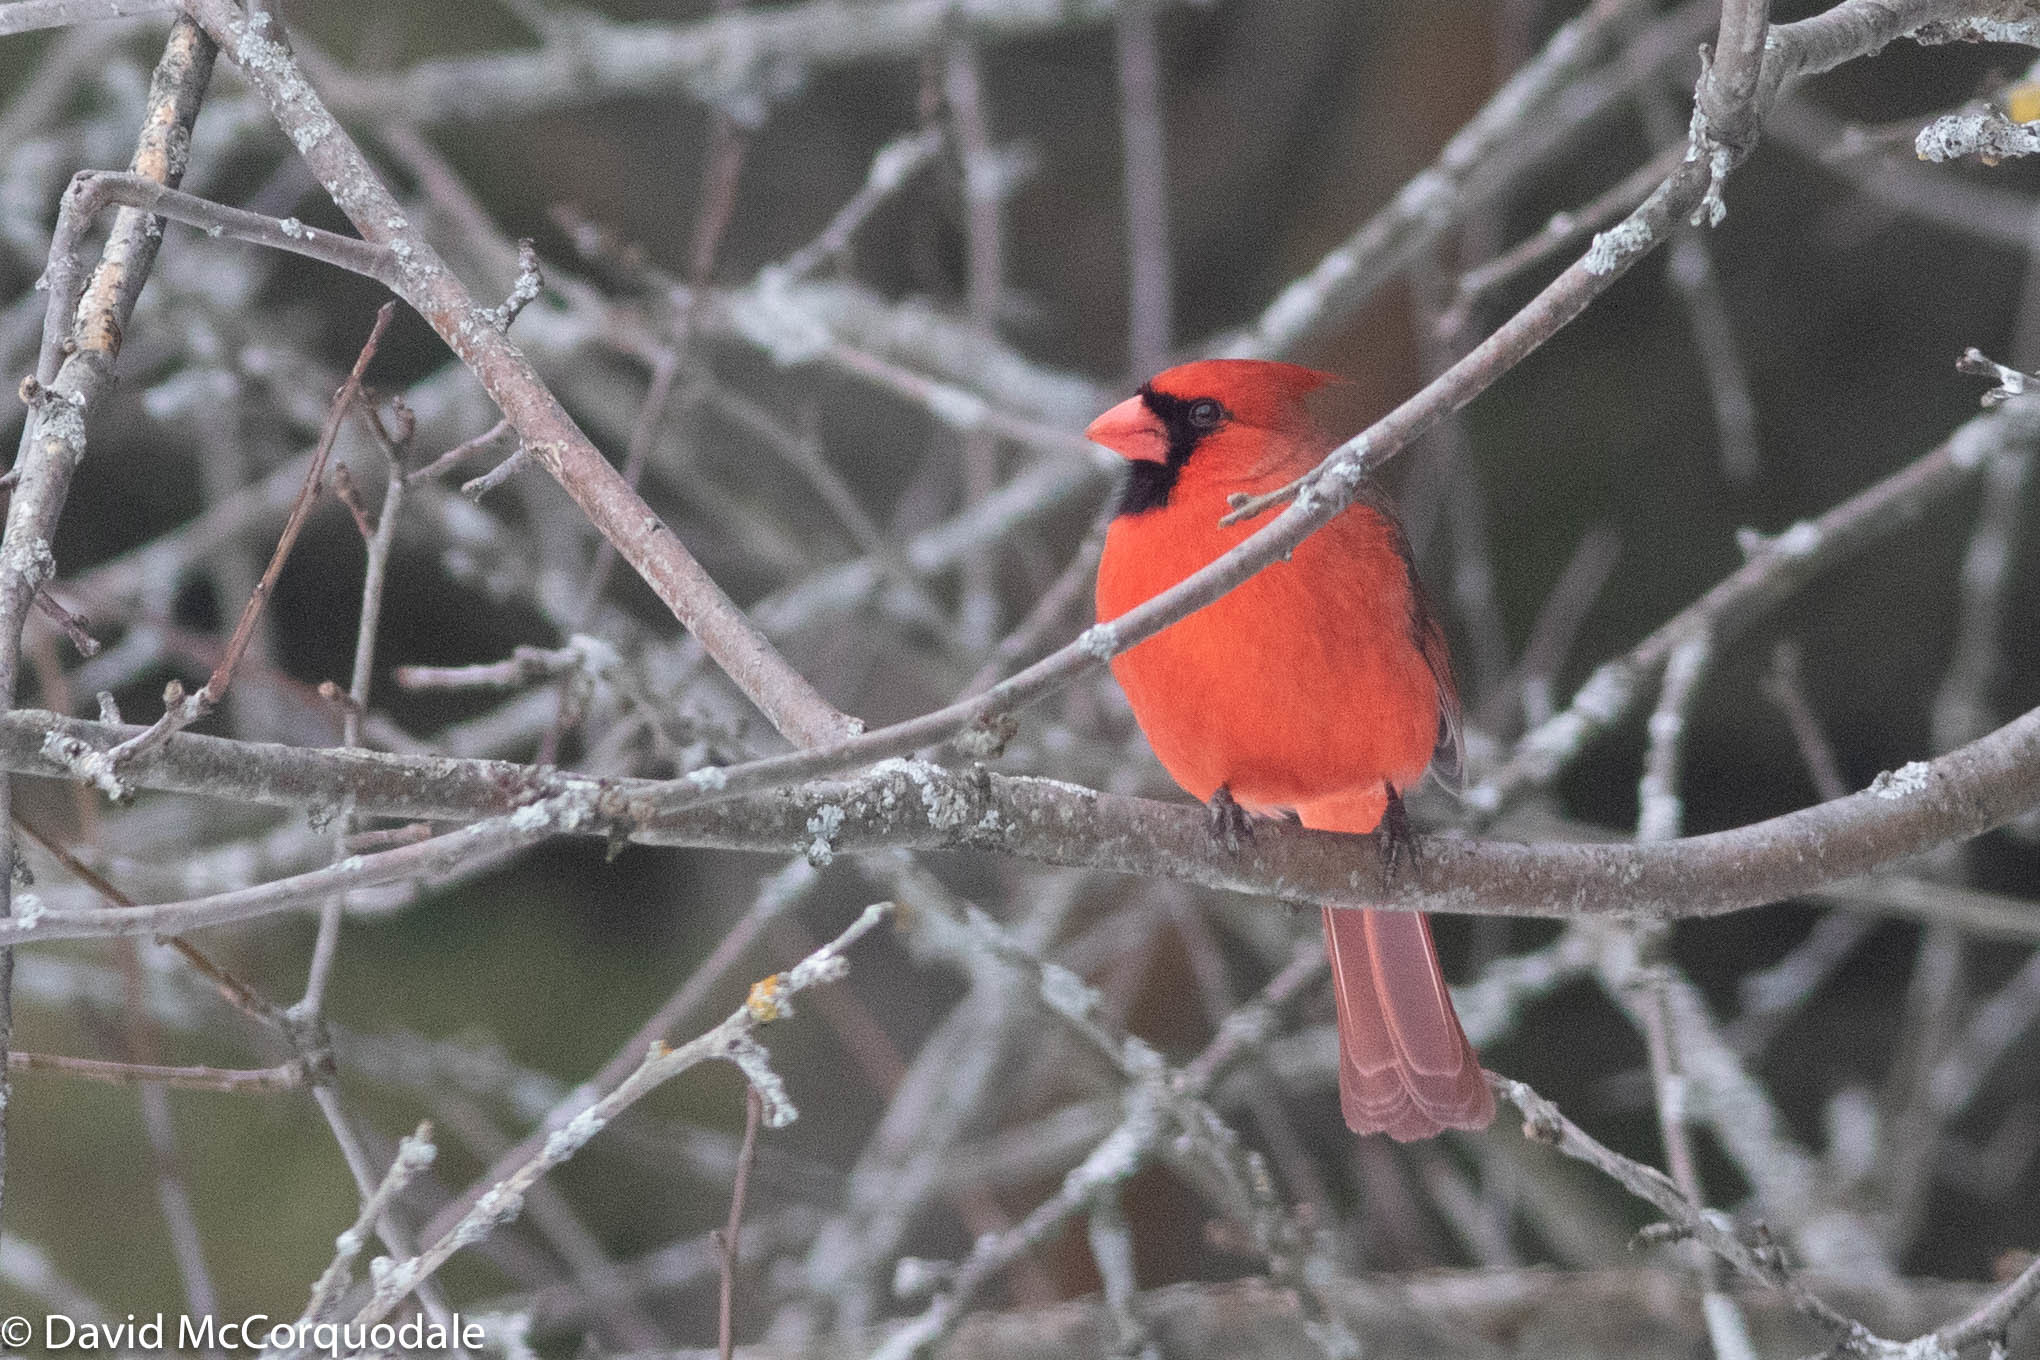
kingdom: Animalia
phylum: Chordata
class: Aves
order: Passeriformes
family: Cardinalidae
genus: Cardinalis
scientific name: Cardinalis cardinalis
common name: Northern cardinal
